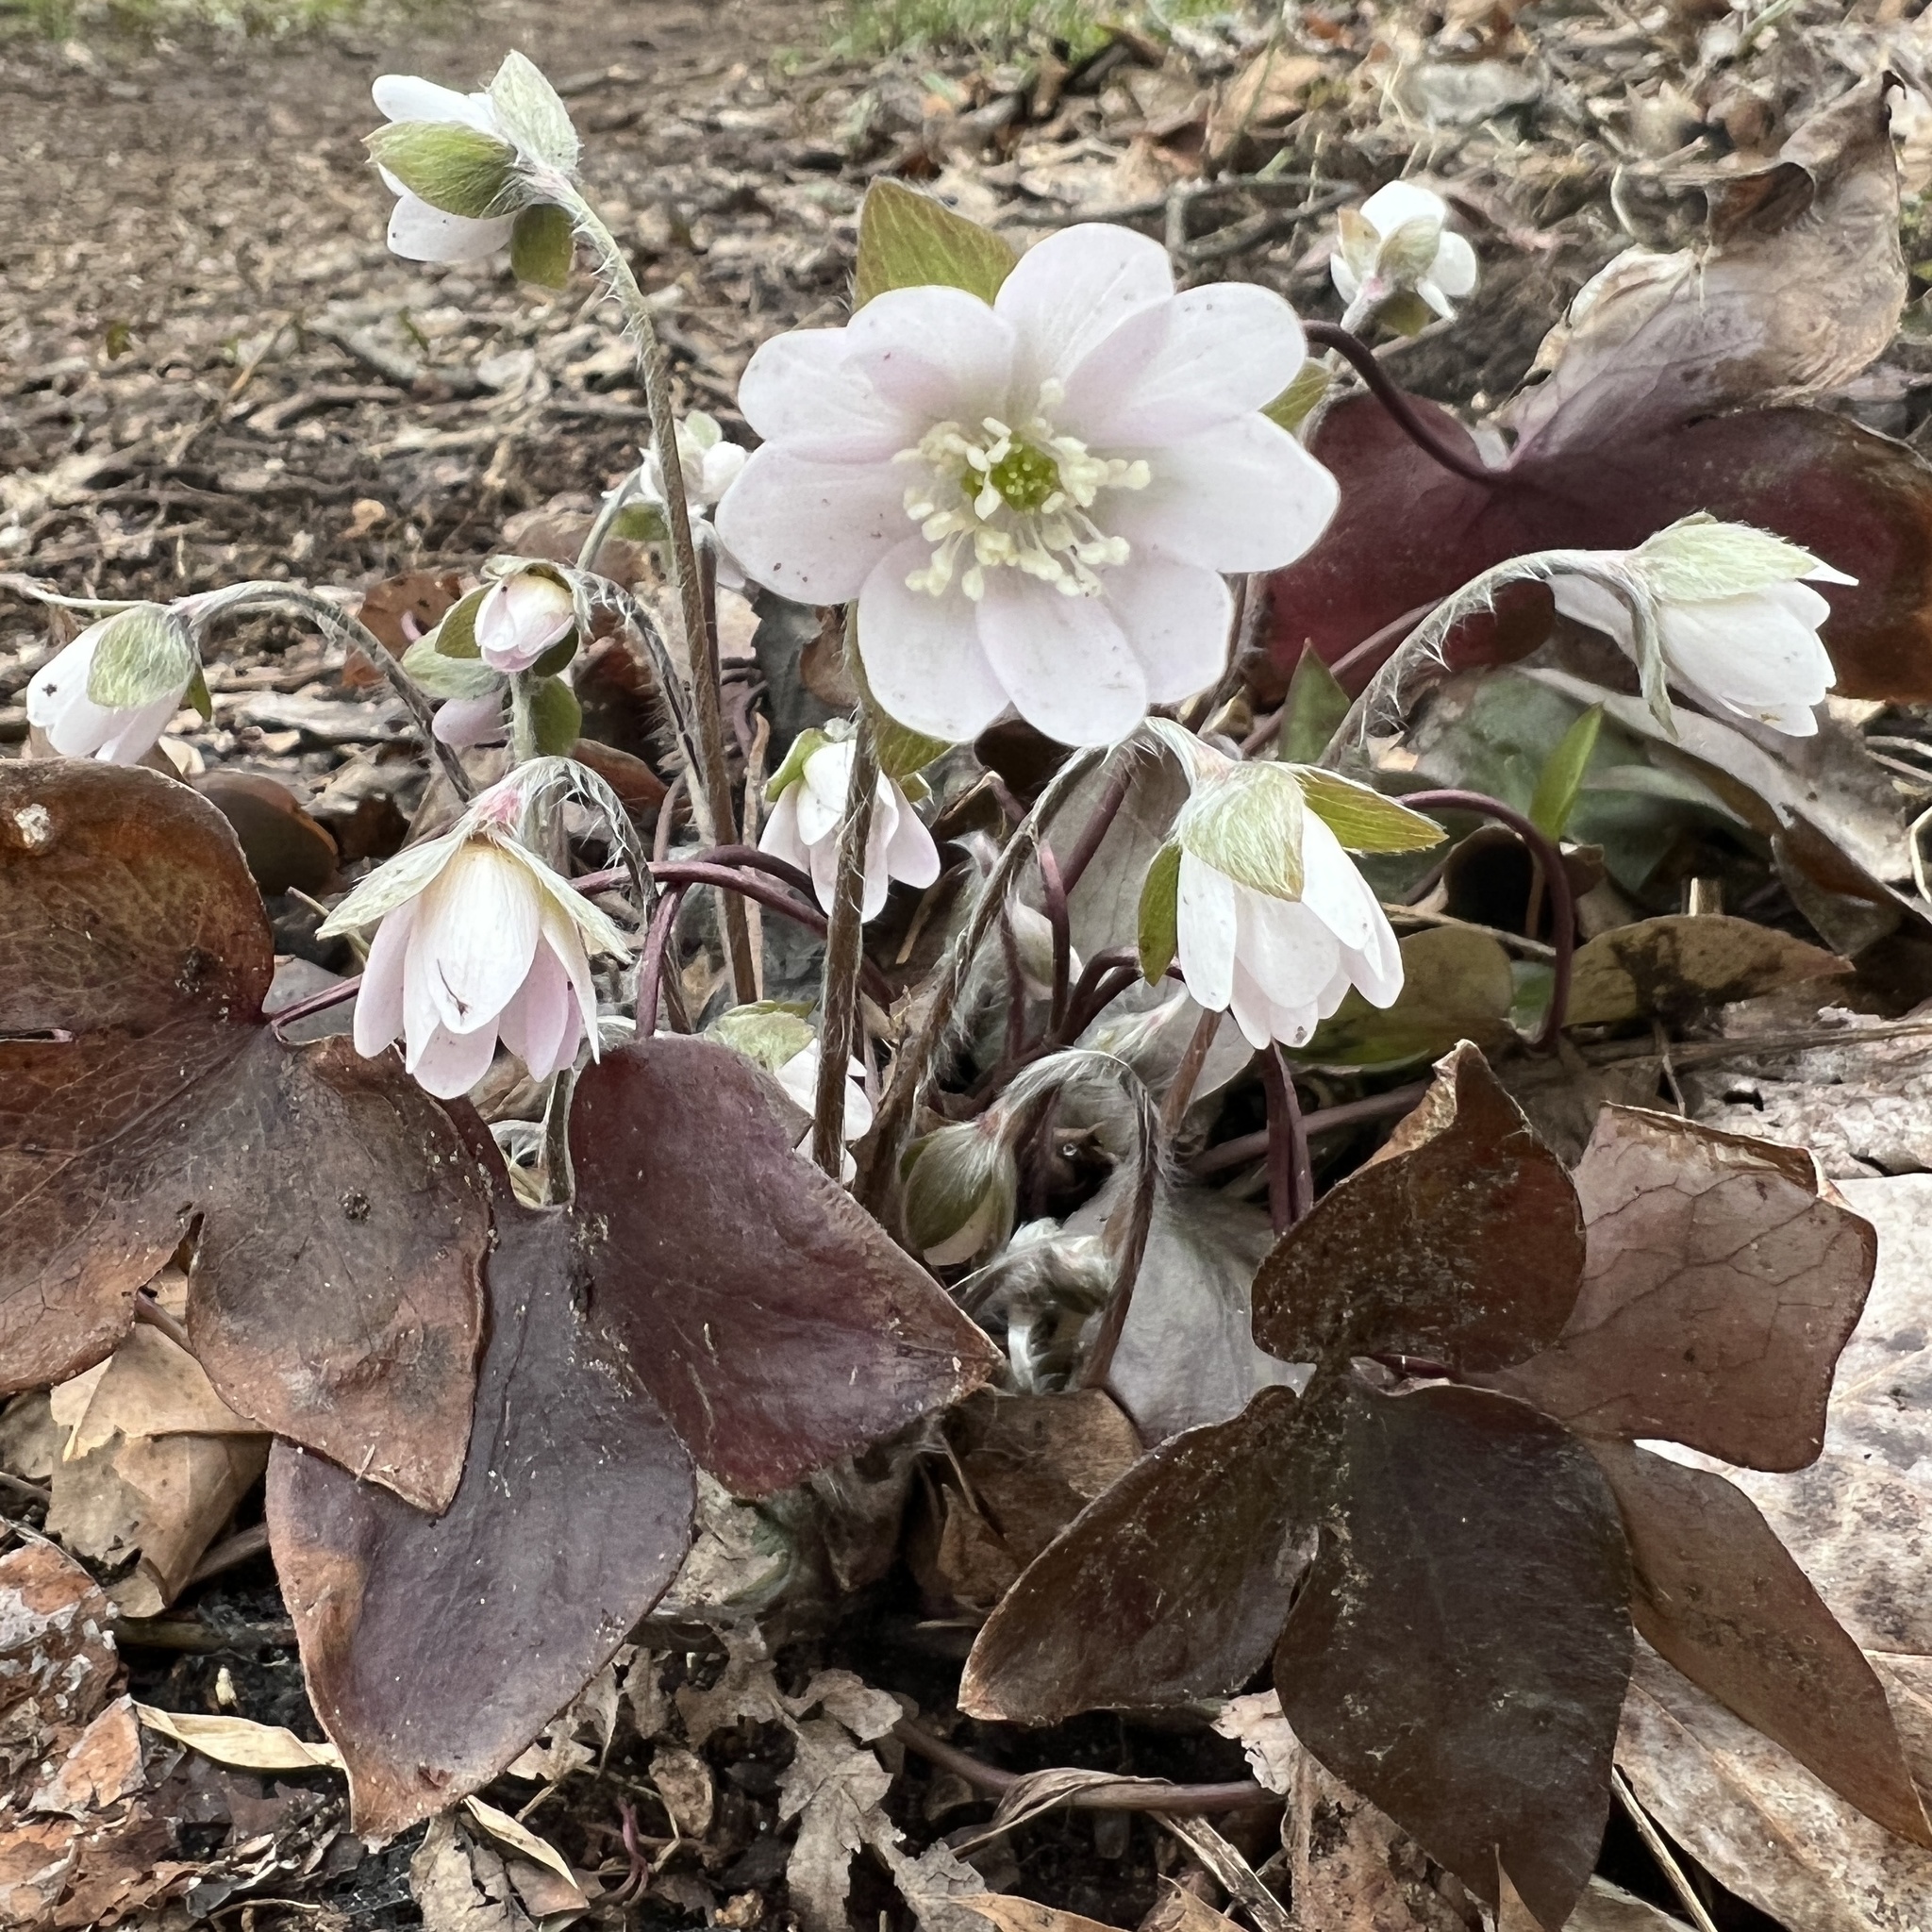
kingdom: Plantae
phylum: Tracheophyta
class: Magnoliopsida
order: Ranunculales
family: Ranunculaceae
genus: Hepatica
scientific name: Hepatica acutiloba
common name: Sharp-lobed hepatica
